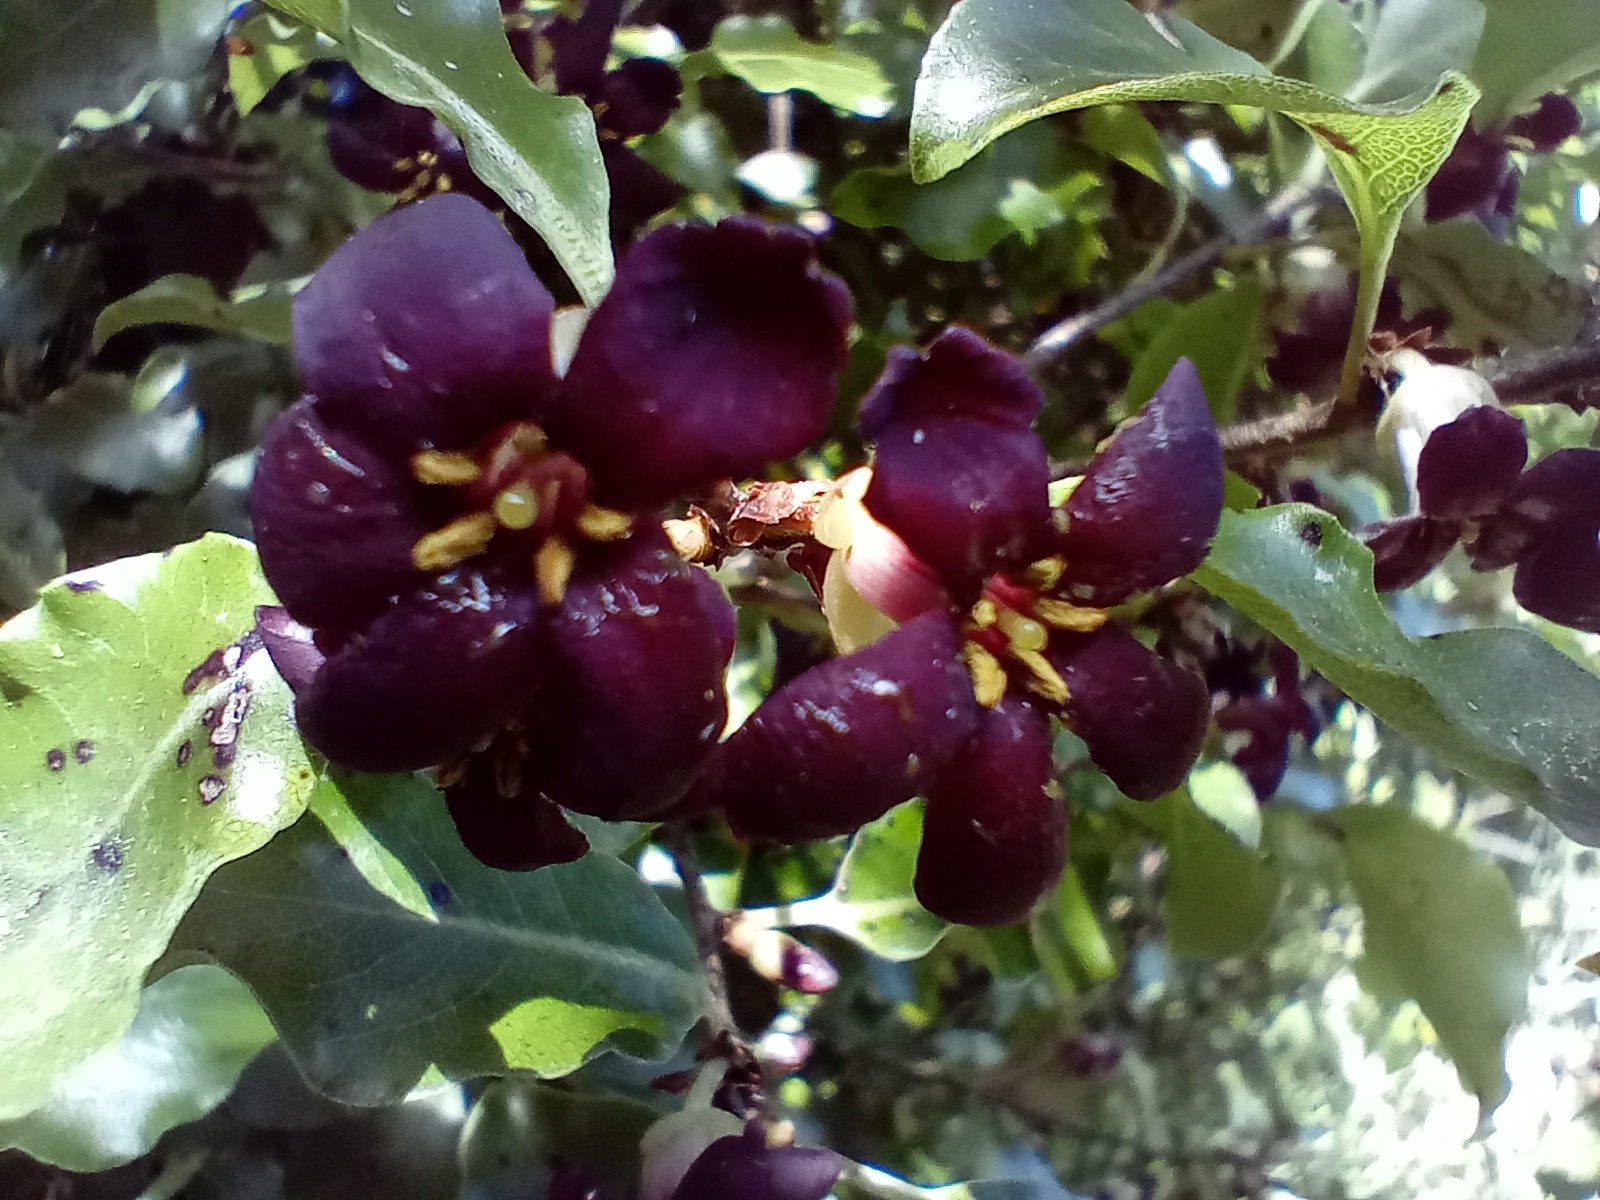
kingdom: Plantae
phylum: Tracheophyta
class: Magnoliopsida
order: Apiales
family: Pittosporaceae
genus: Pittosporum
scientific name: Pittosporum tenuifolium
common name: Kohuhu
